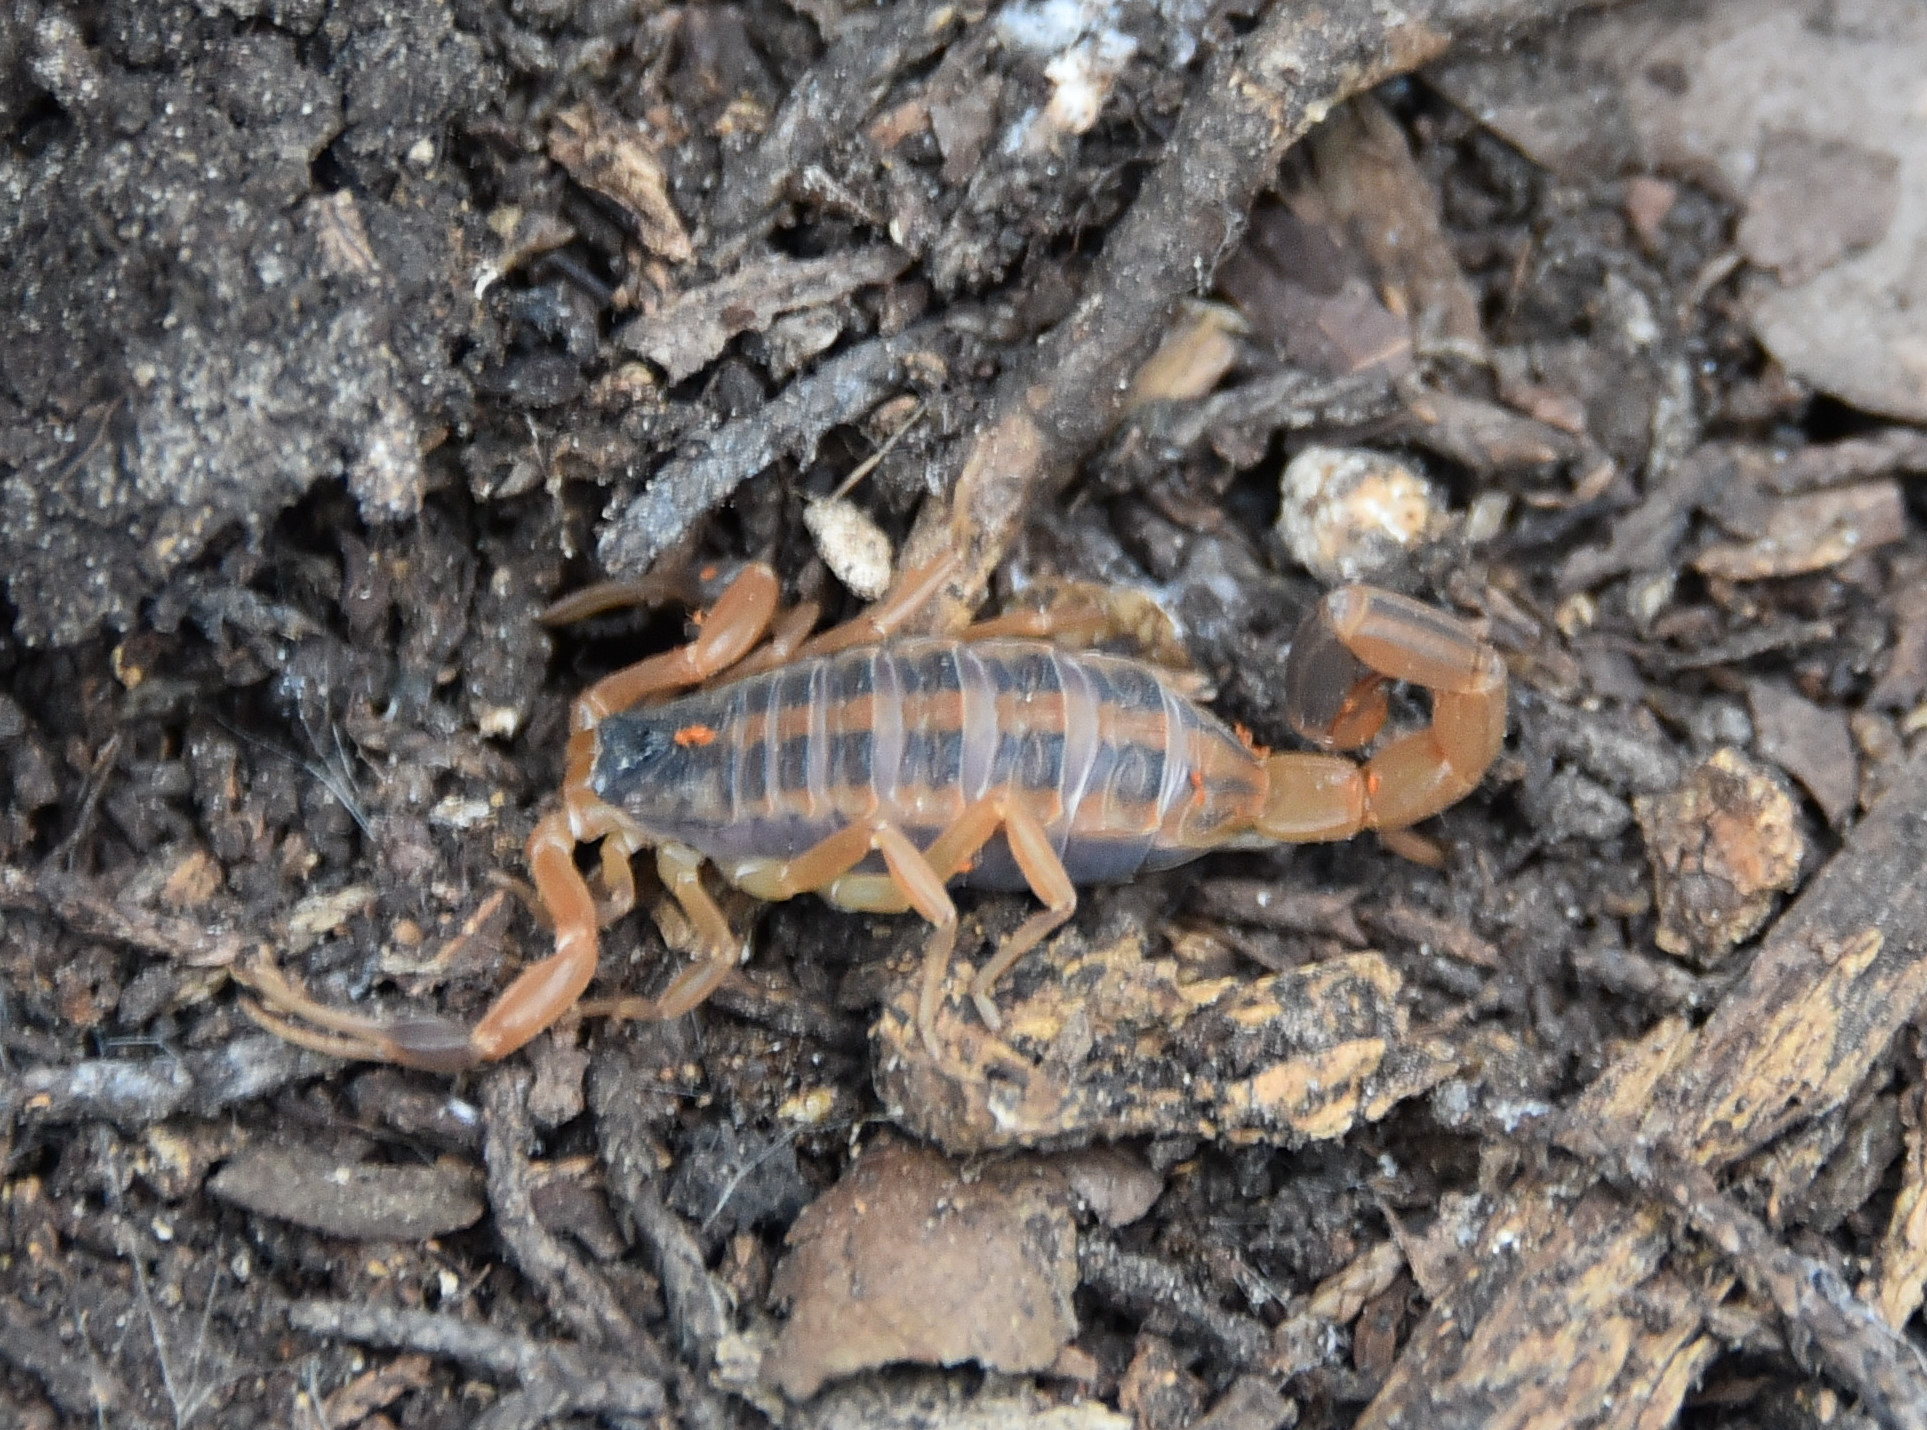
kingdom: Animalia
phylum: Arthropoda
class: Arachnida
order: Scorpiones
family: Buthidae
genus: Centruroides
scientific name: Centruroides vittatus
